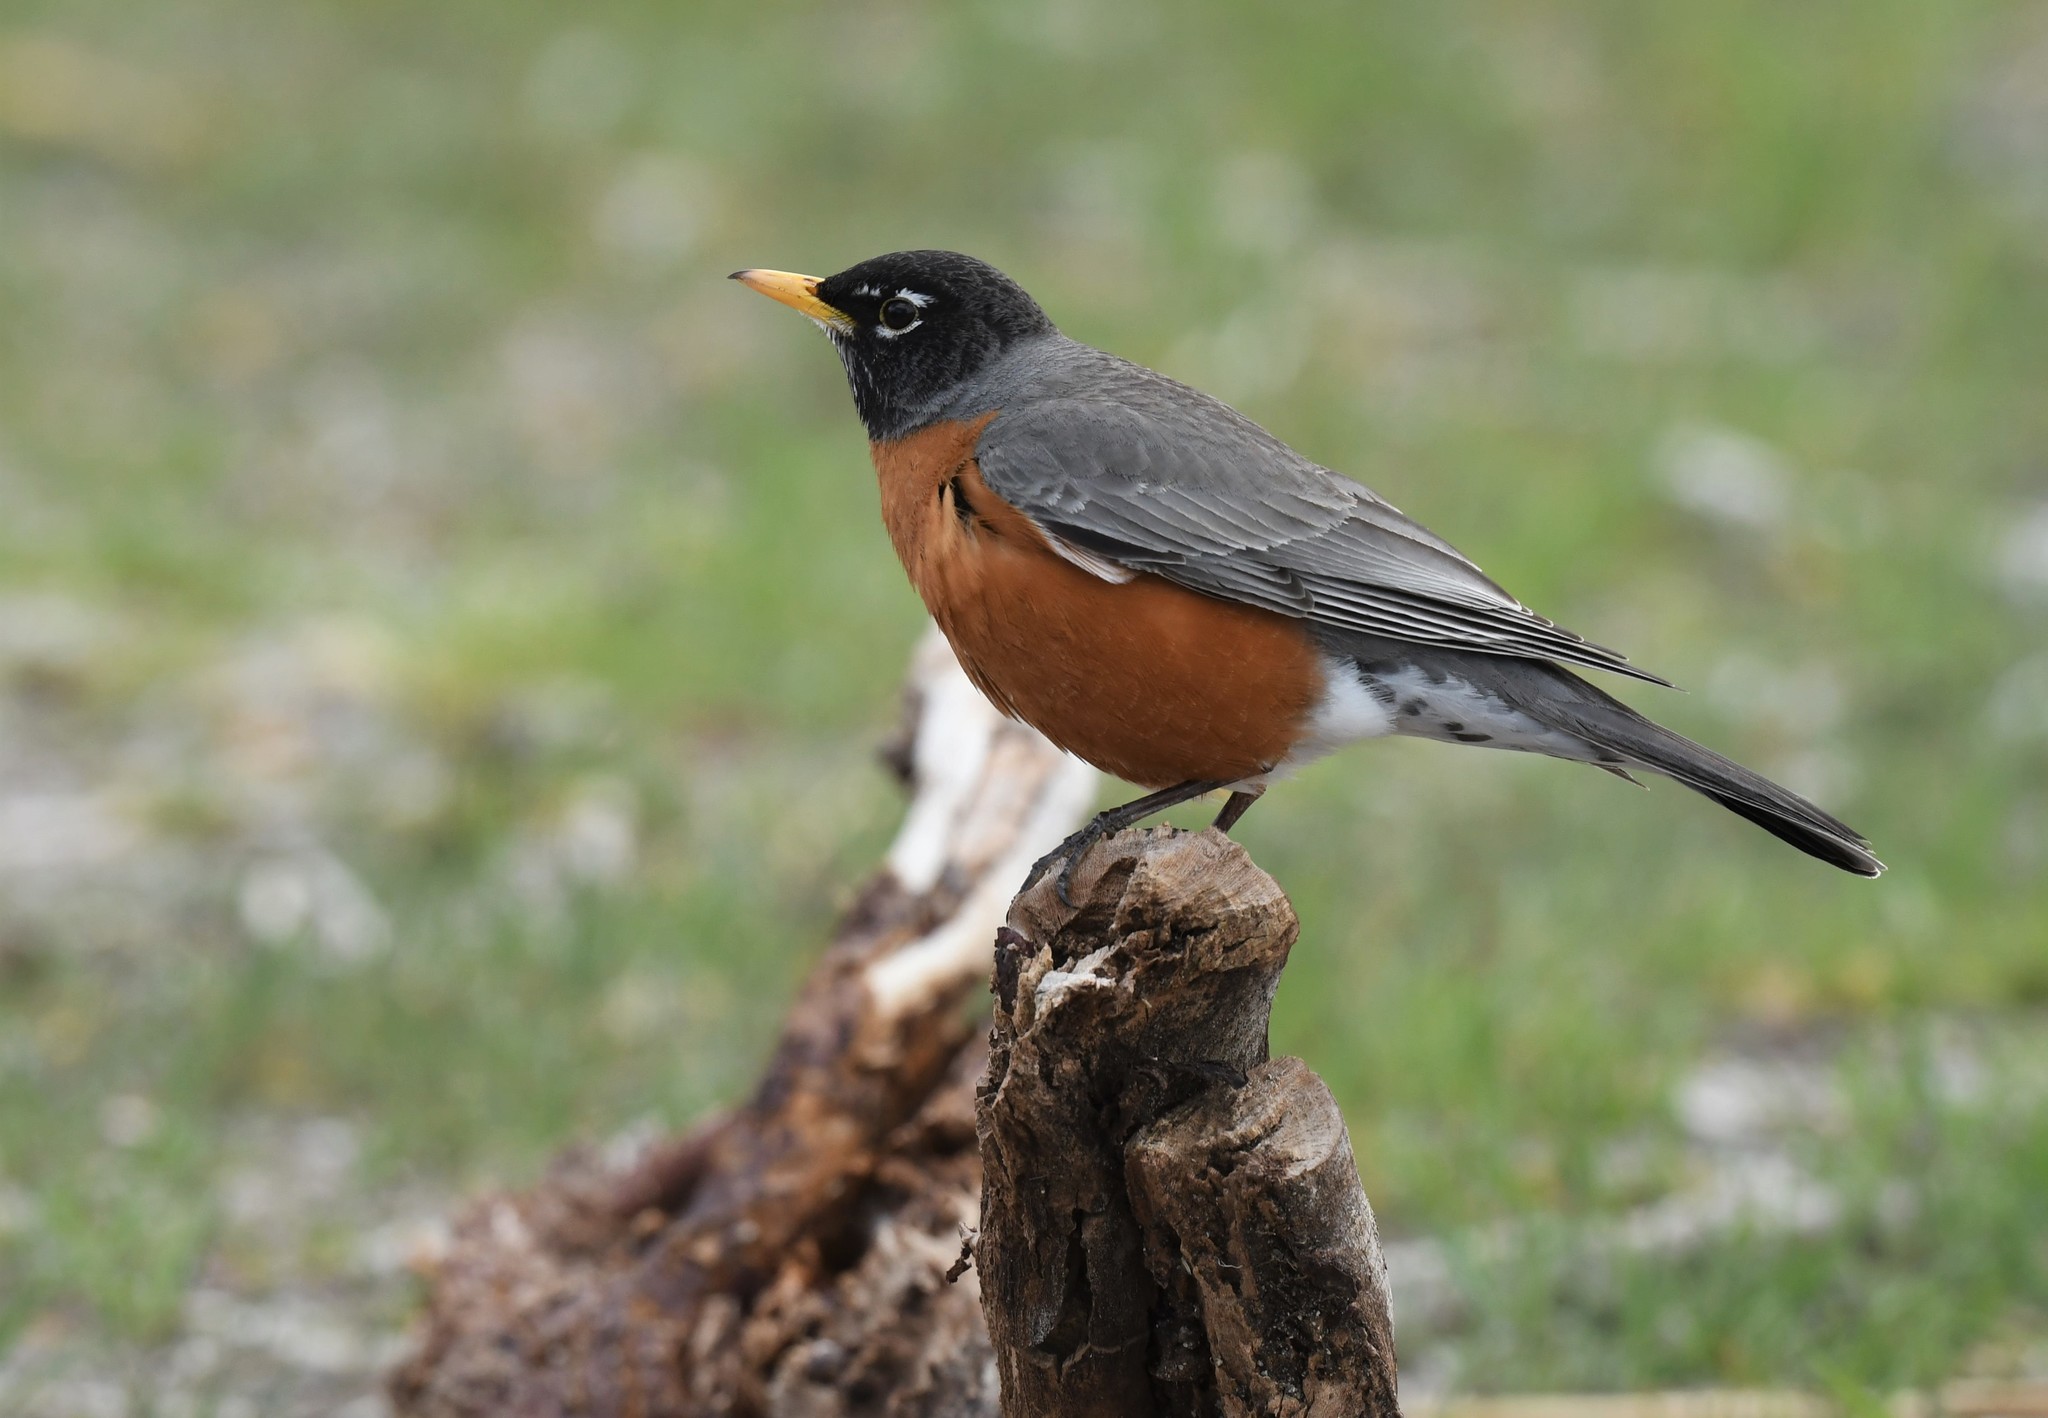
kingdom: Animalia
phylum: Chordata
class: Aves
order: Passeriformes
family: Turdidae
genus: Turdus
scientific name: Turdus migratorius
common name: American robin
